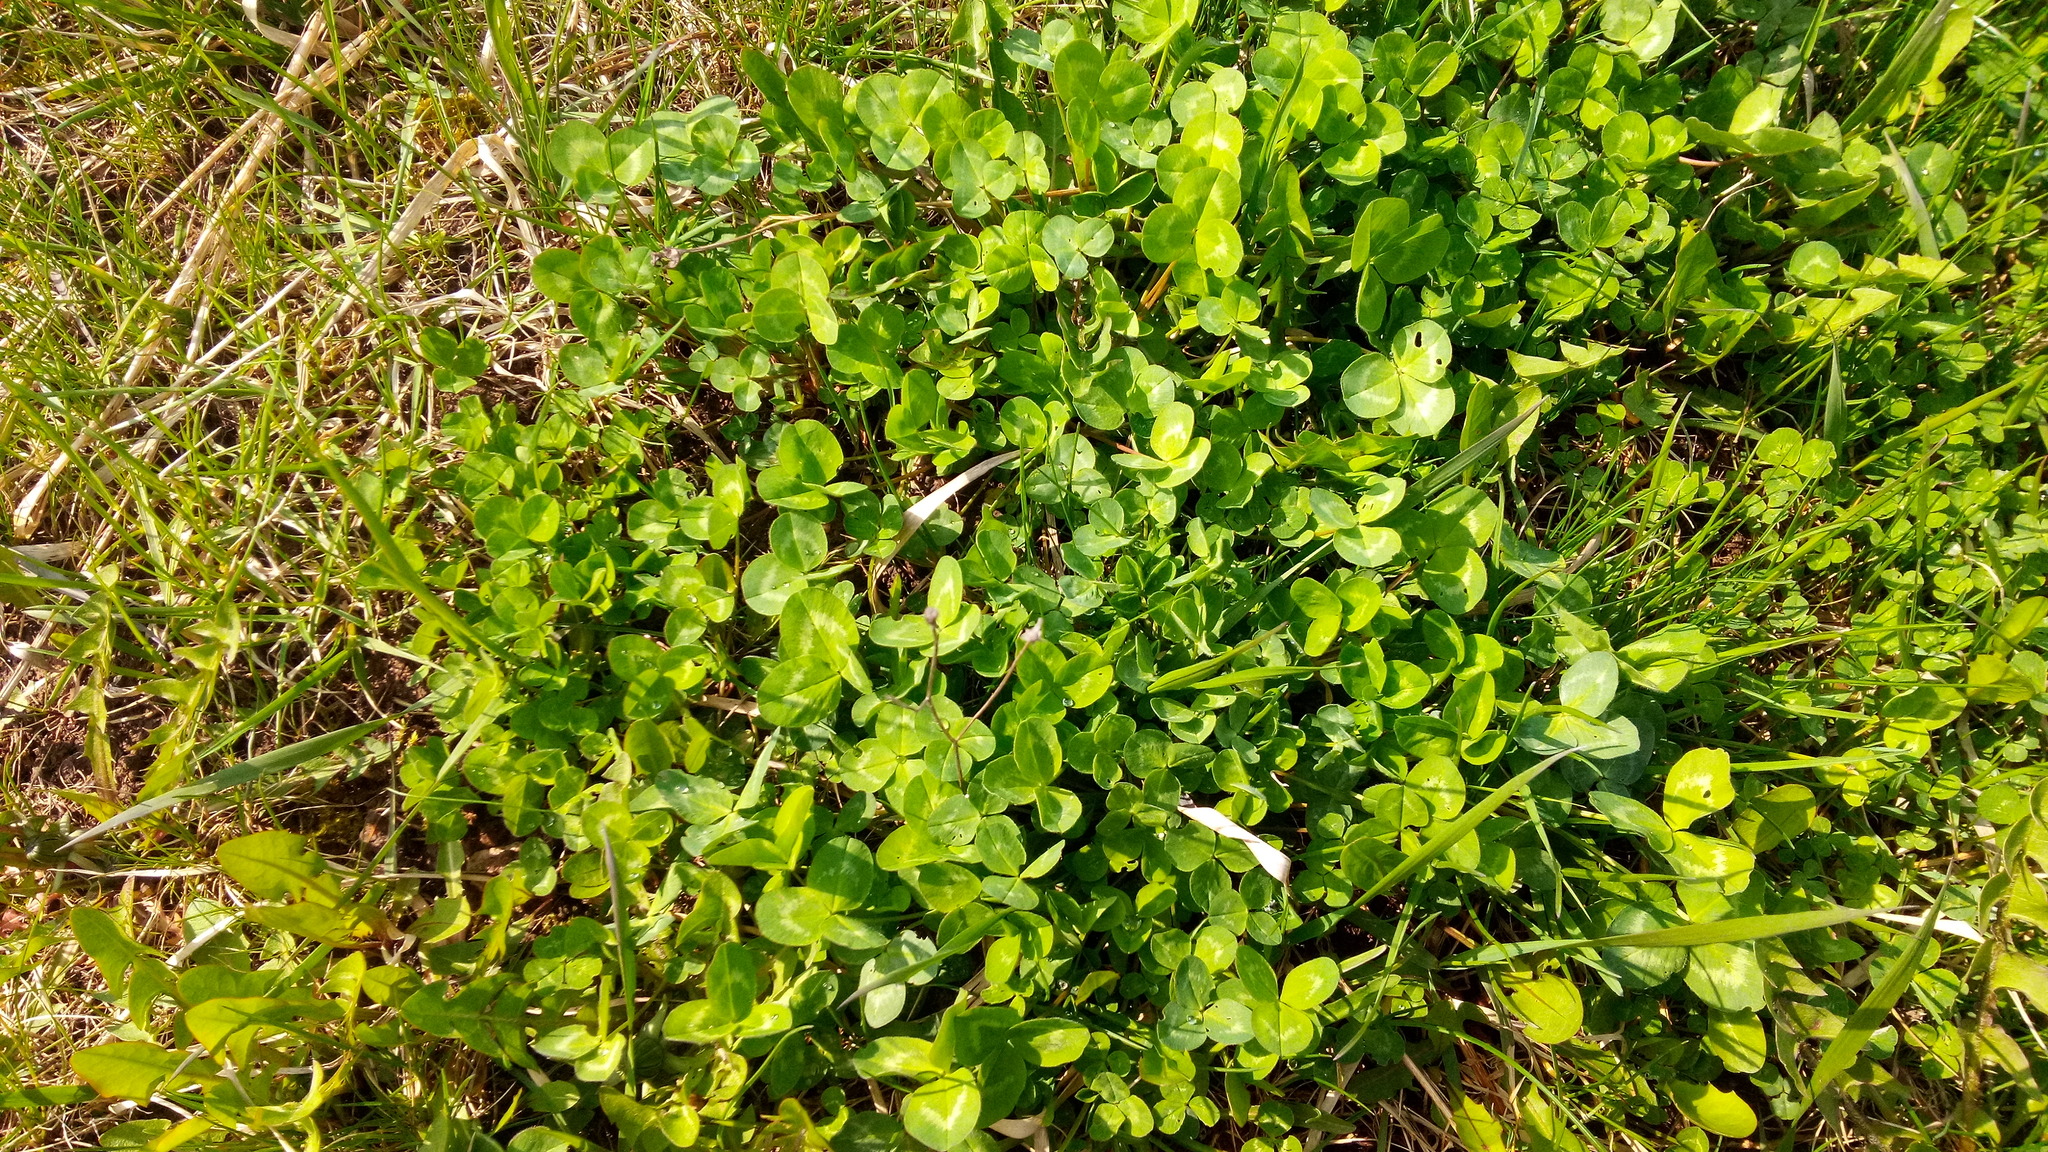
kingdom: Plantae
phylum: Tracheophyta
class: Magnoliopsida
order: Fabales
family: Fabaceae
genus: Trifolium
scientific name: Trifolium repens
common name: White clover
